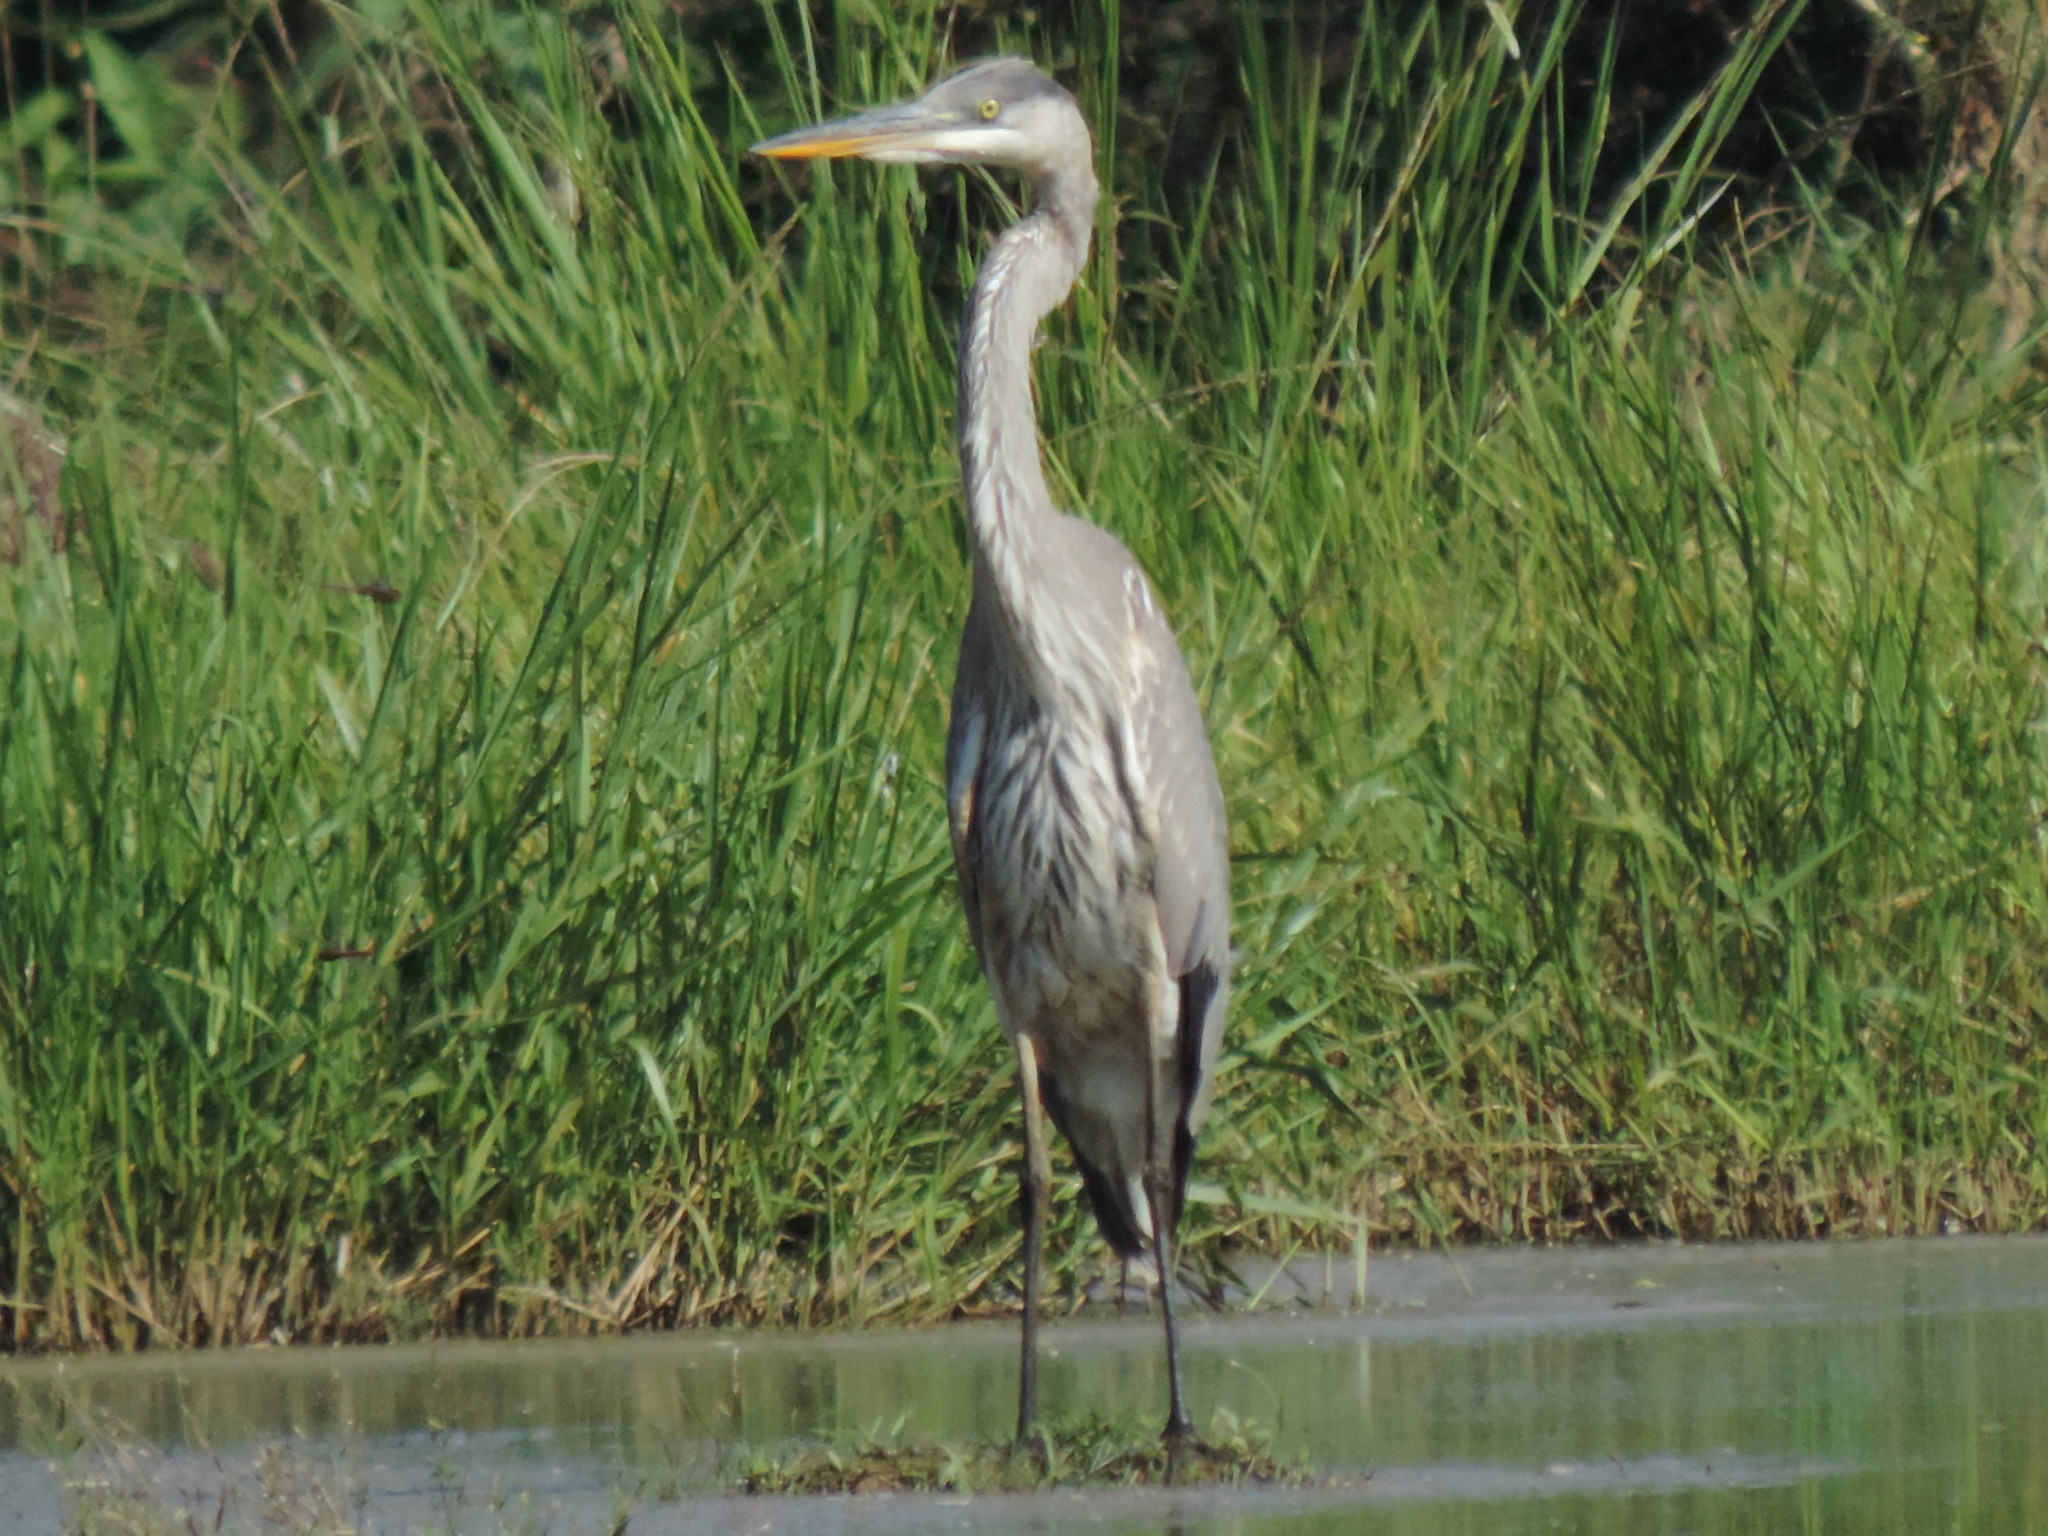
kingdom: Animalia
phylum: Chordata
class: Aves
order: Pelecaniformes
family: Ardeidae
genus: Ardea
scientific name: Ardea herodias
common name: Great blue heron
